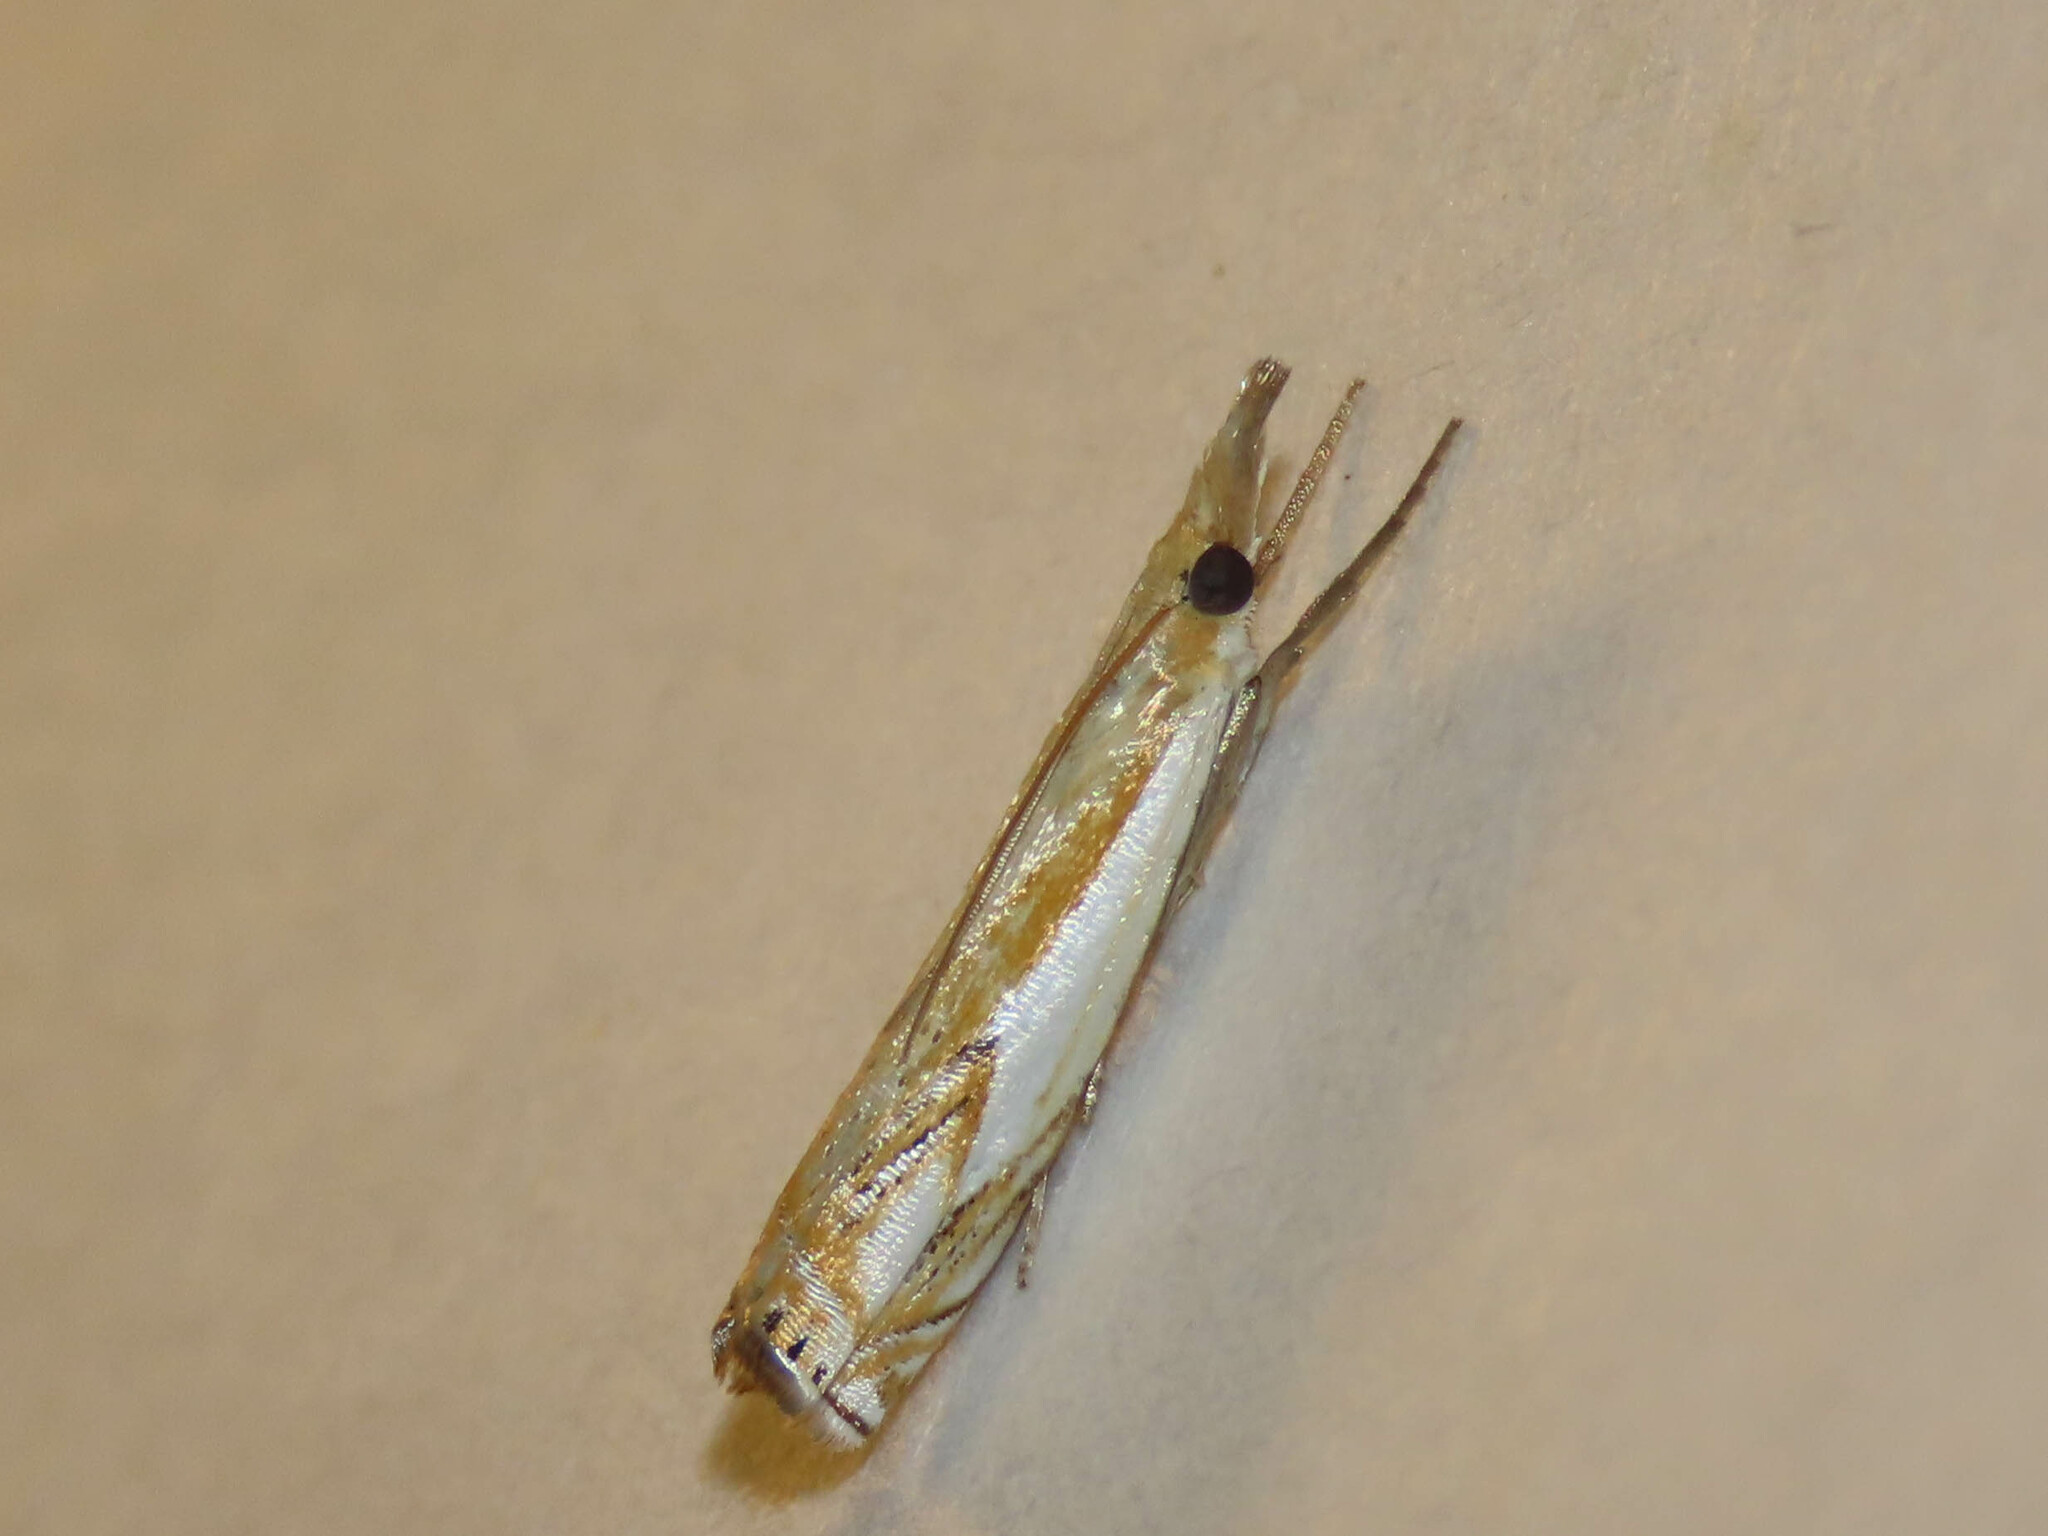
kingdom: Animalia
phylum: Arthropoda
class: Insecta
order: Lepidoptera
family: Crambidae
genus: Crambus
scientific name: Crambus agitatellus
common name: Double-banded grass-veneer
